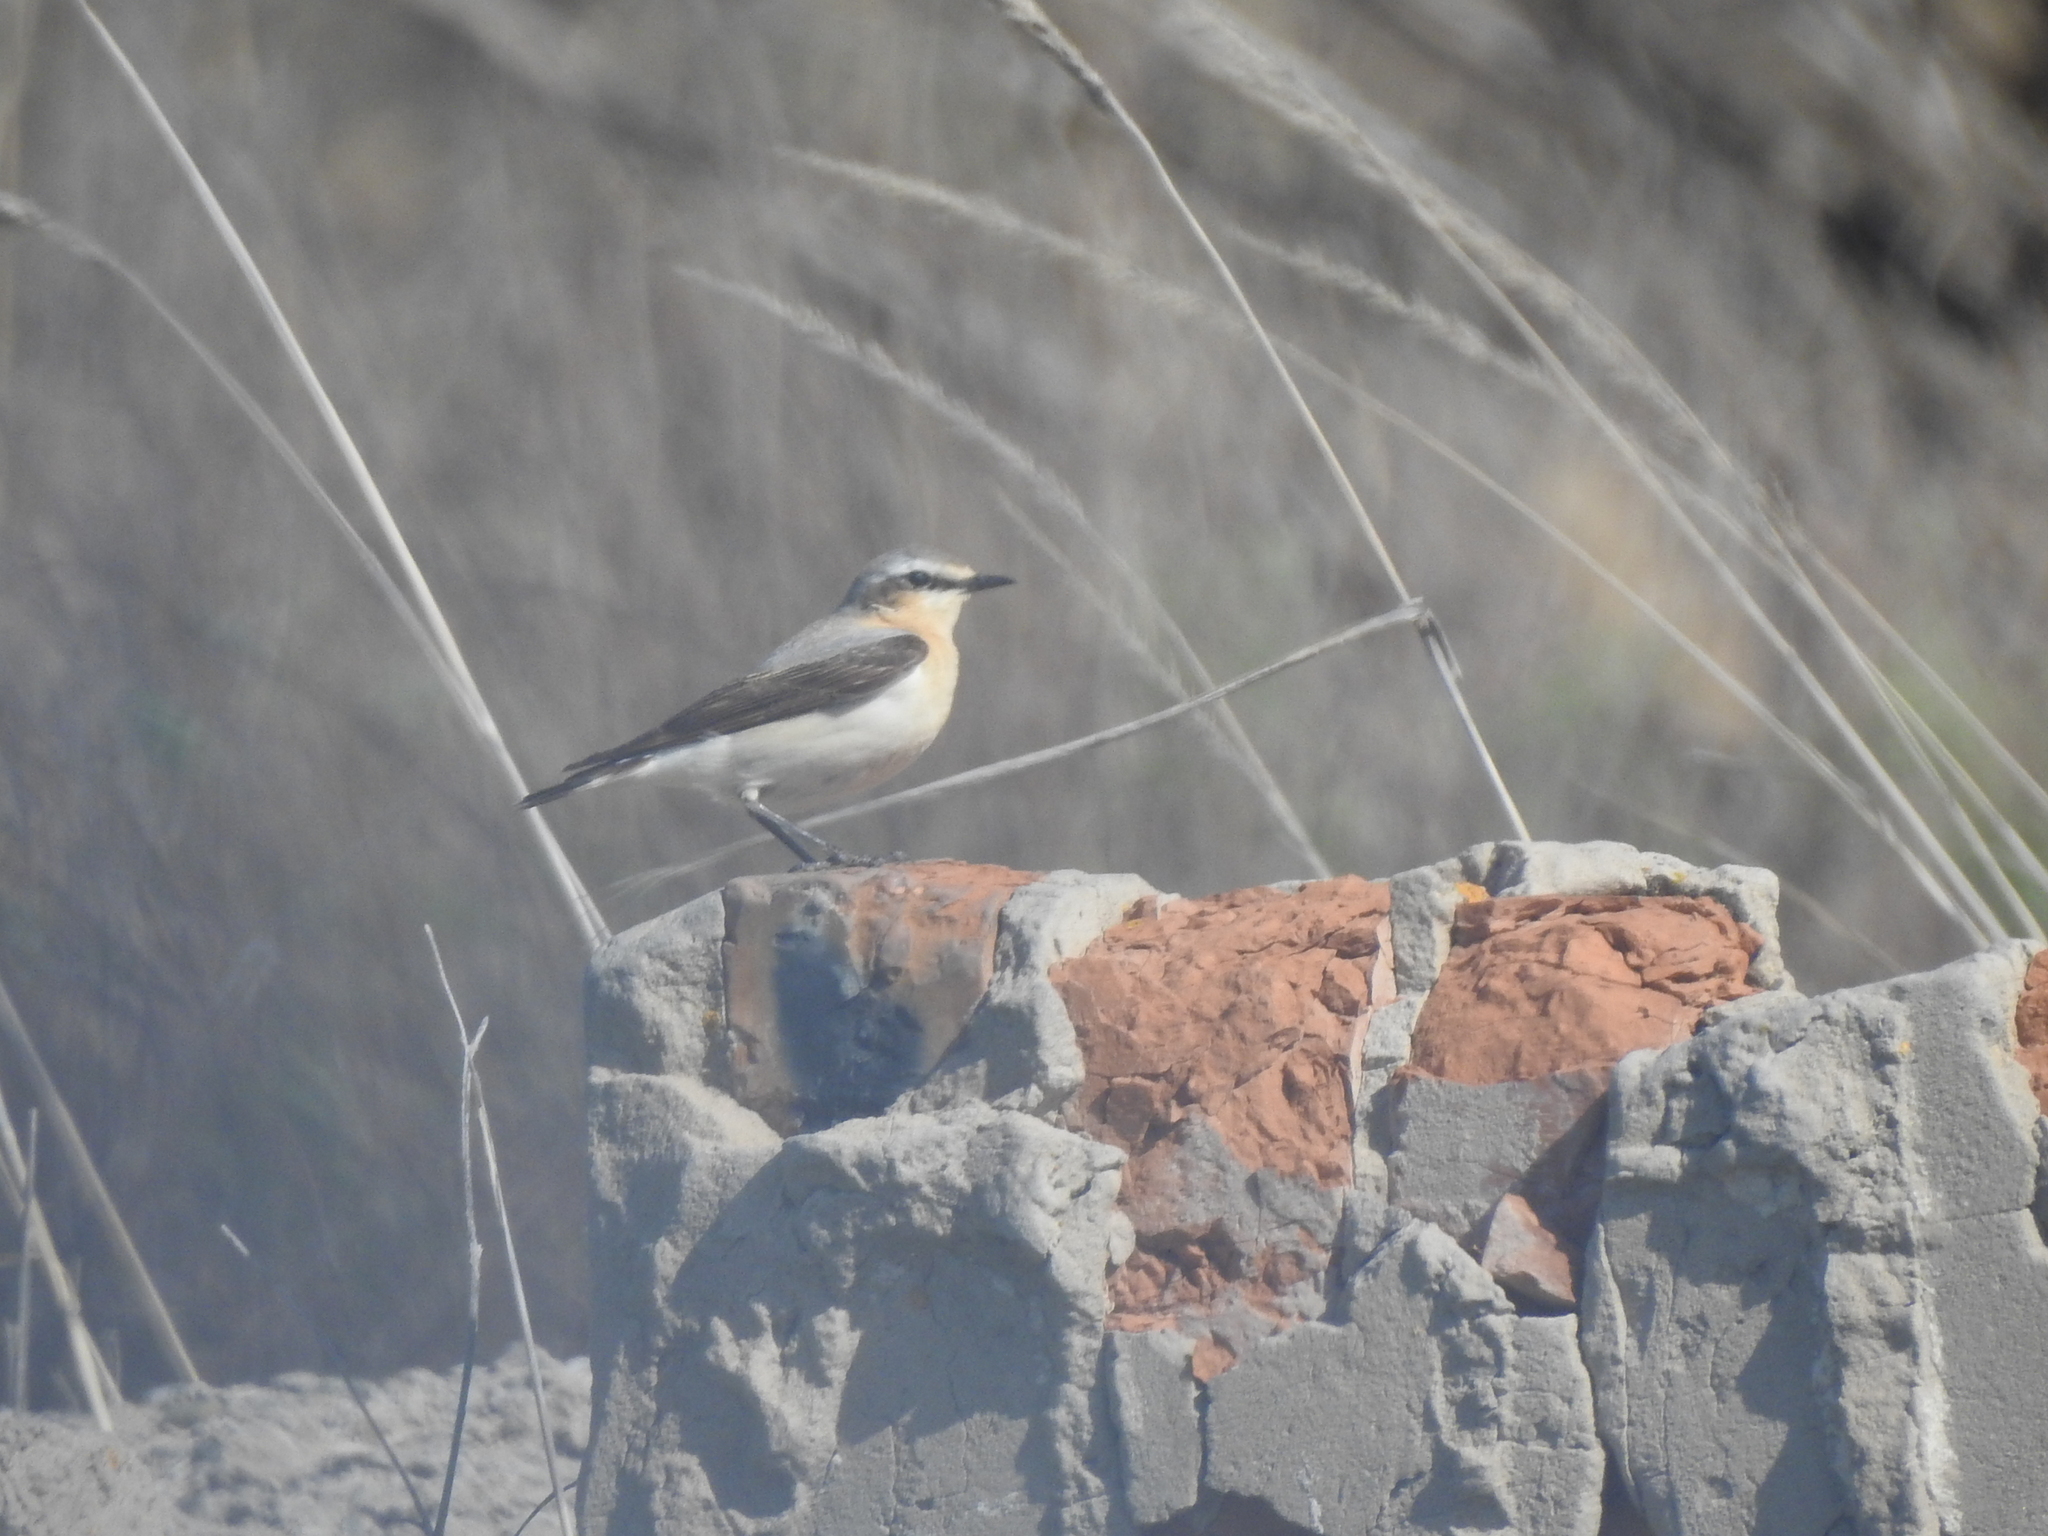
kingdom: Animalia
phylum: Chordata
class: Aves
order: Passeriformes
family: Muscicapidae
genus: Oenanthe
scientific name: Oenanthe oenanthe
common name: Northern wheatear
